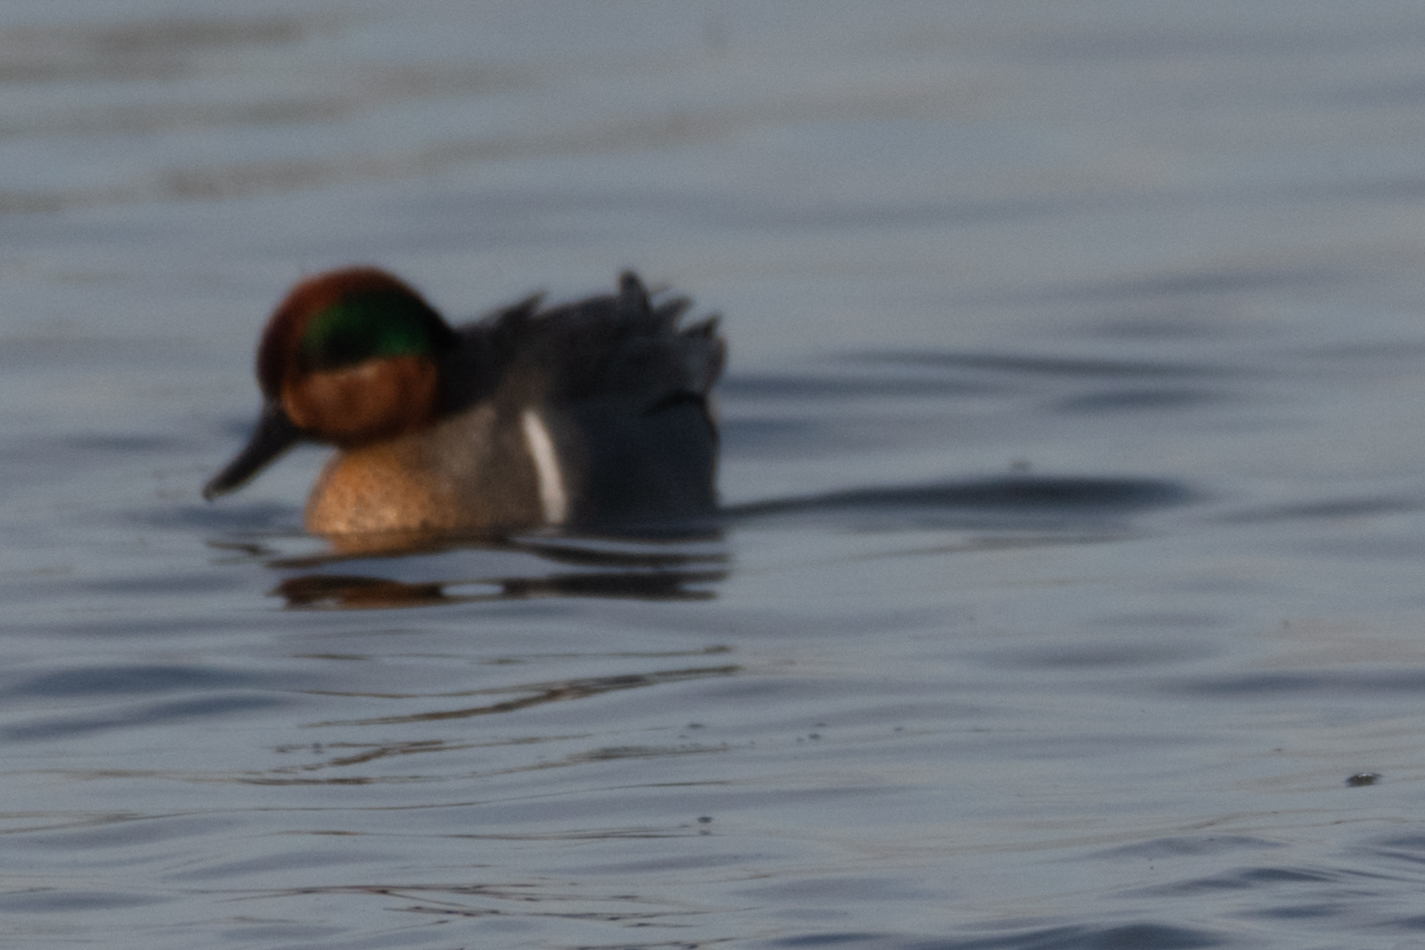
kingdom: Animalia
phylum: Chordata
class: Aves
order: Anseriformes
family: Anatidae
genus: Anas
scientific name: Anas crecca
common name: Eurasian teal
